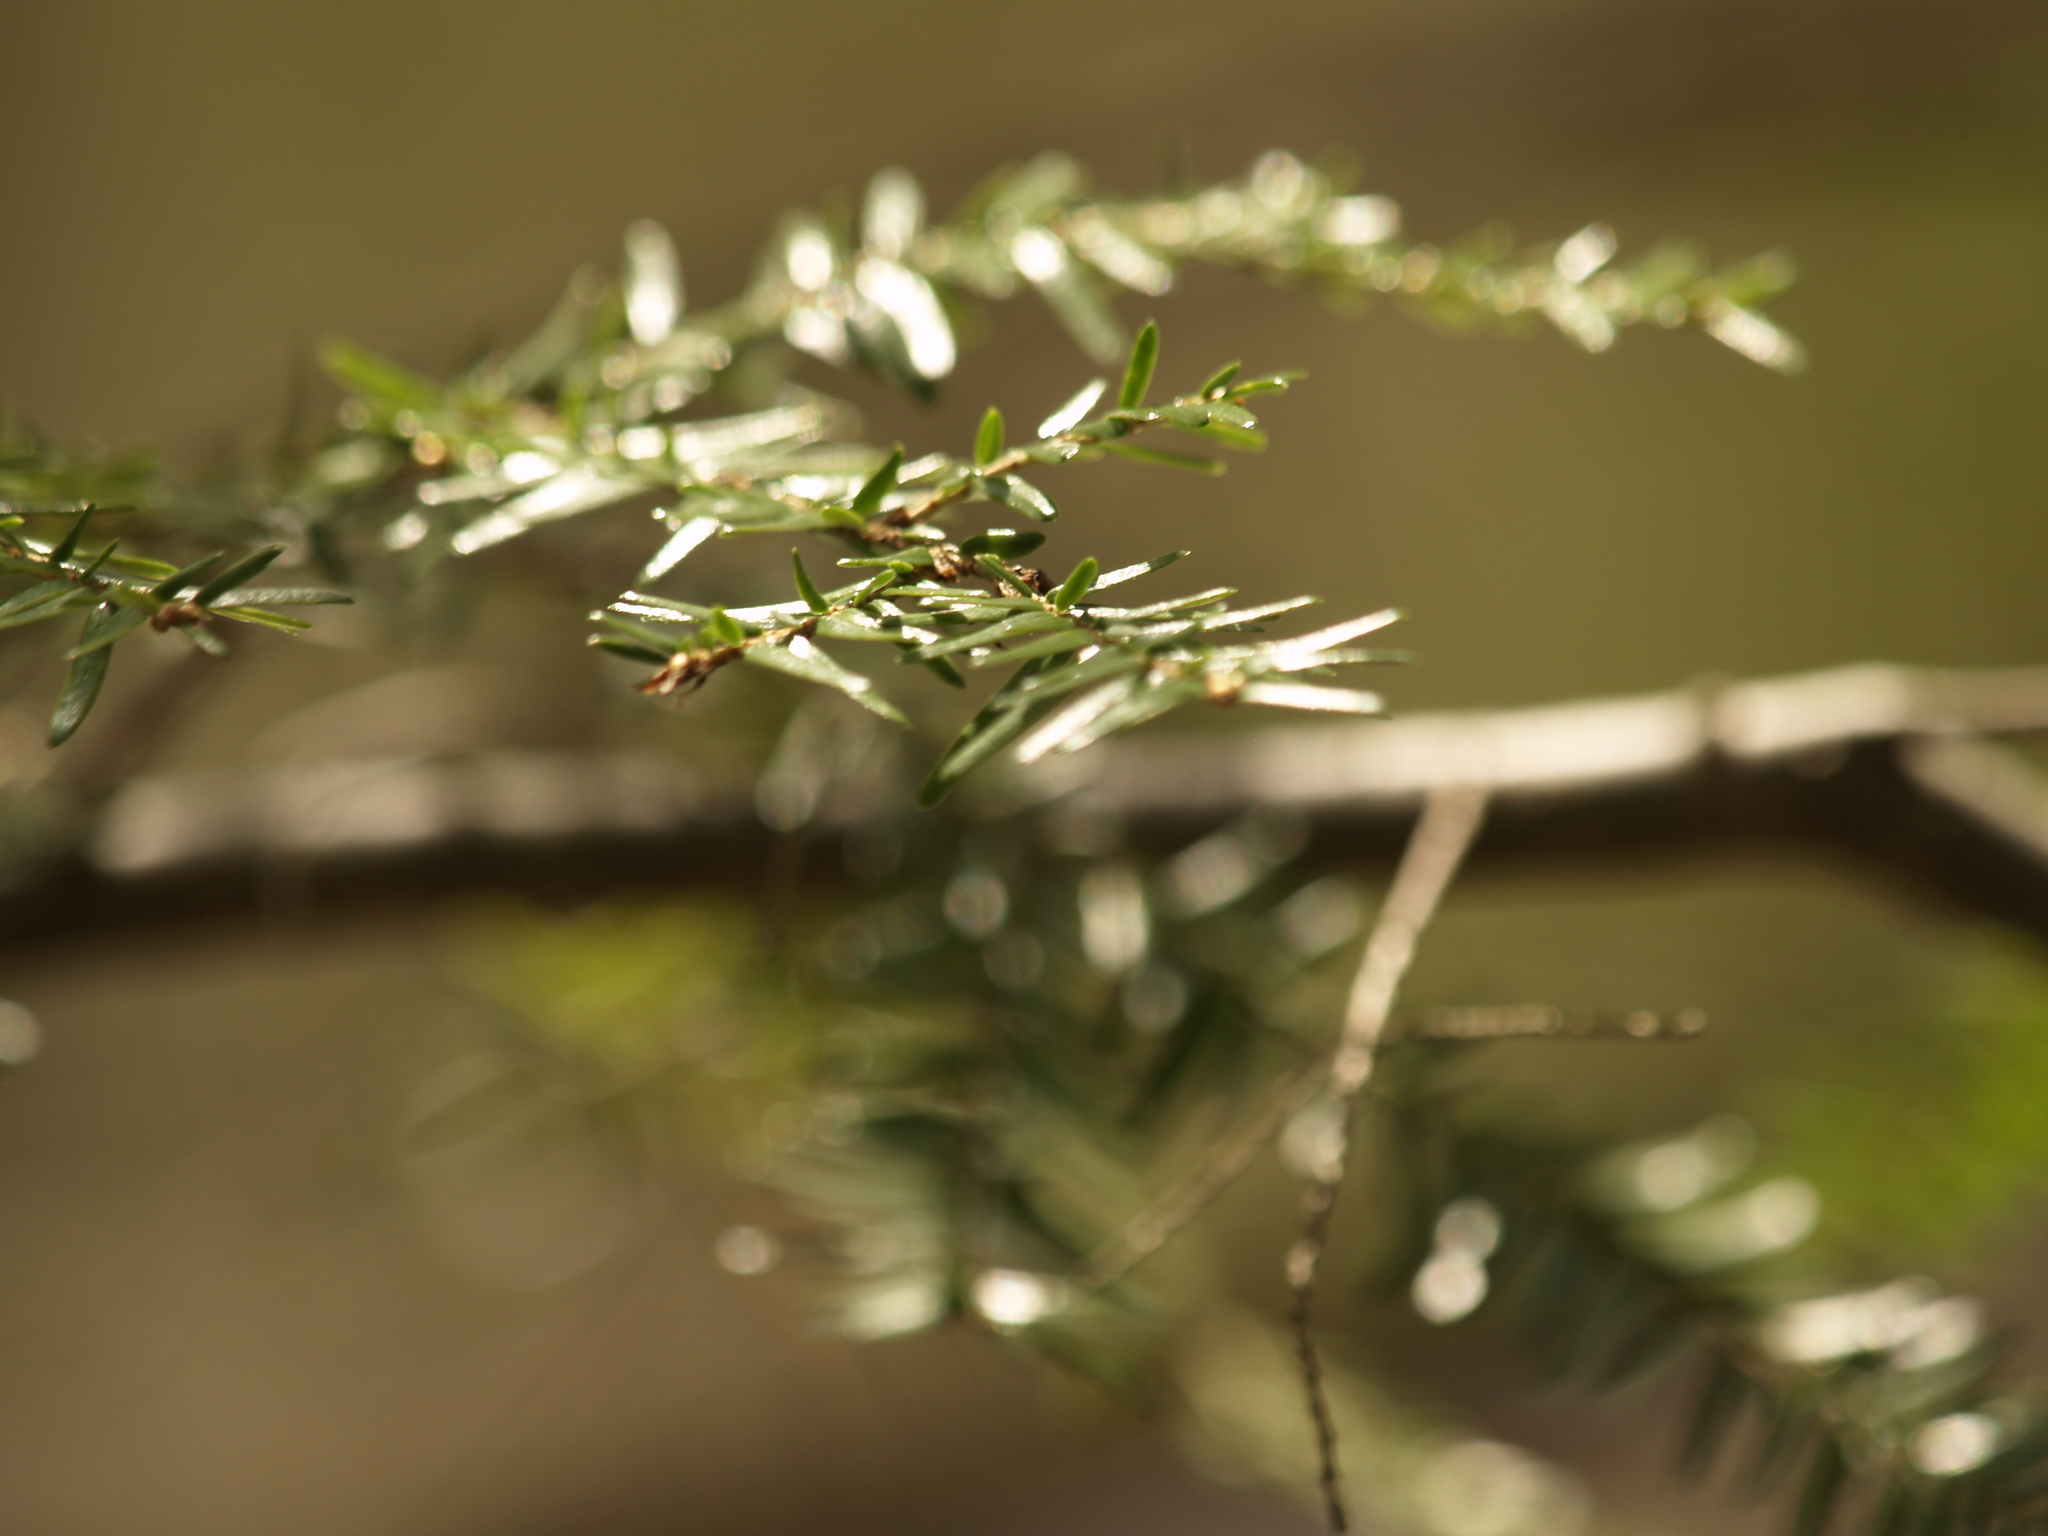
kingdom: Plantae
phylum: Tracheophyta
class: Pinopsida
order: Pinales
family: Pinaceae
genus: Tsuga
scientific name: Tsuga canadensis
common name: Eastern hemlock
